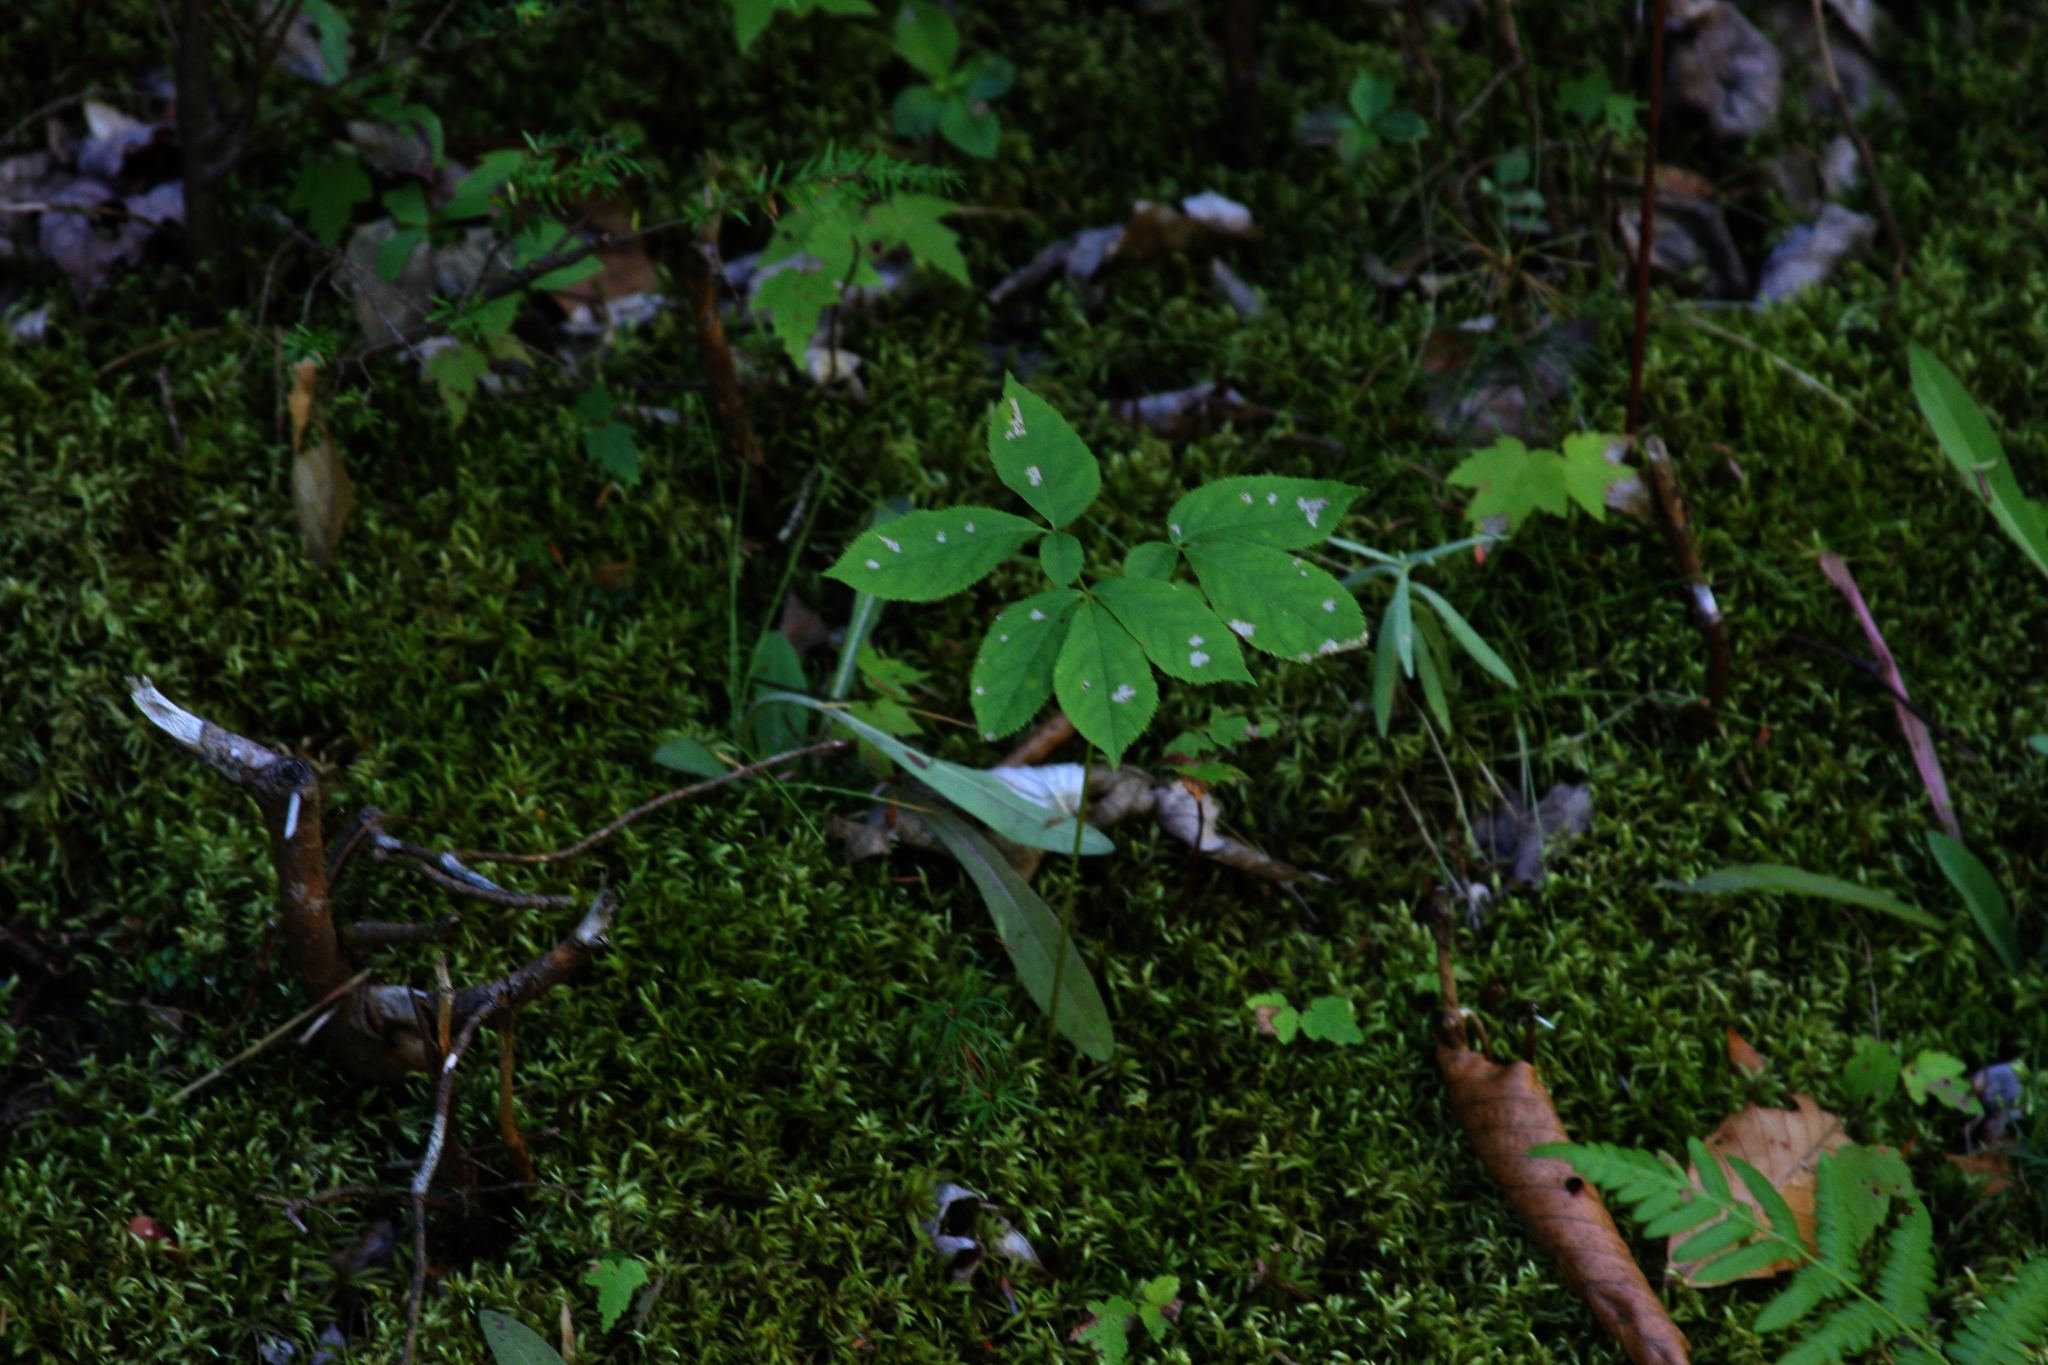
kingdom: Plantae
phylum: Tracheophyta
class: Magnoliopsida
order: Apiales
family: Araliaceae
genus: Aralia
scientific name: Aralia nudicaulis
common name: Wild sarsaparilla
